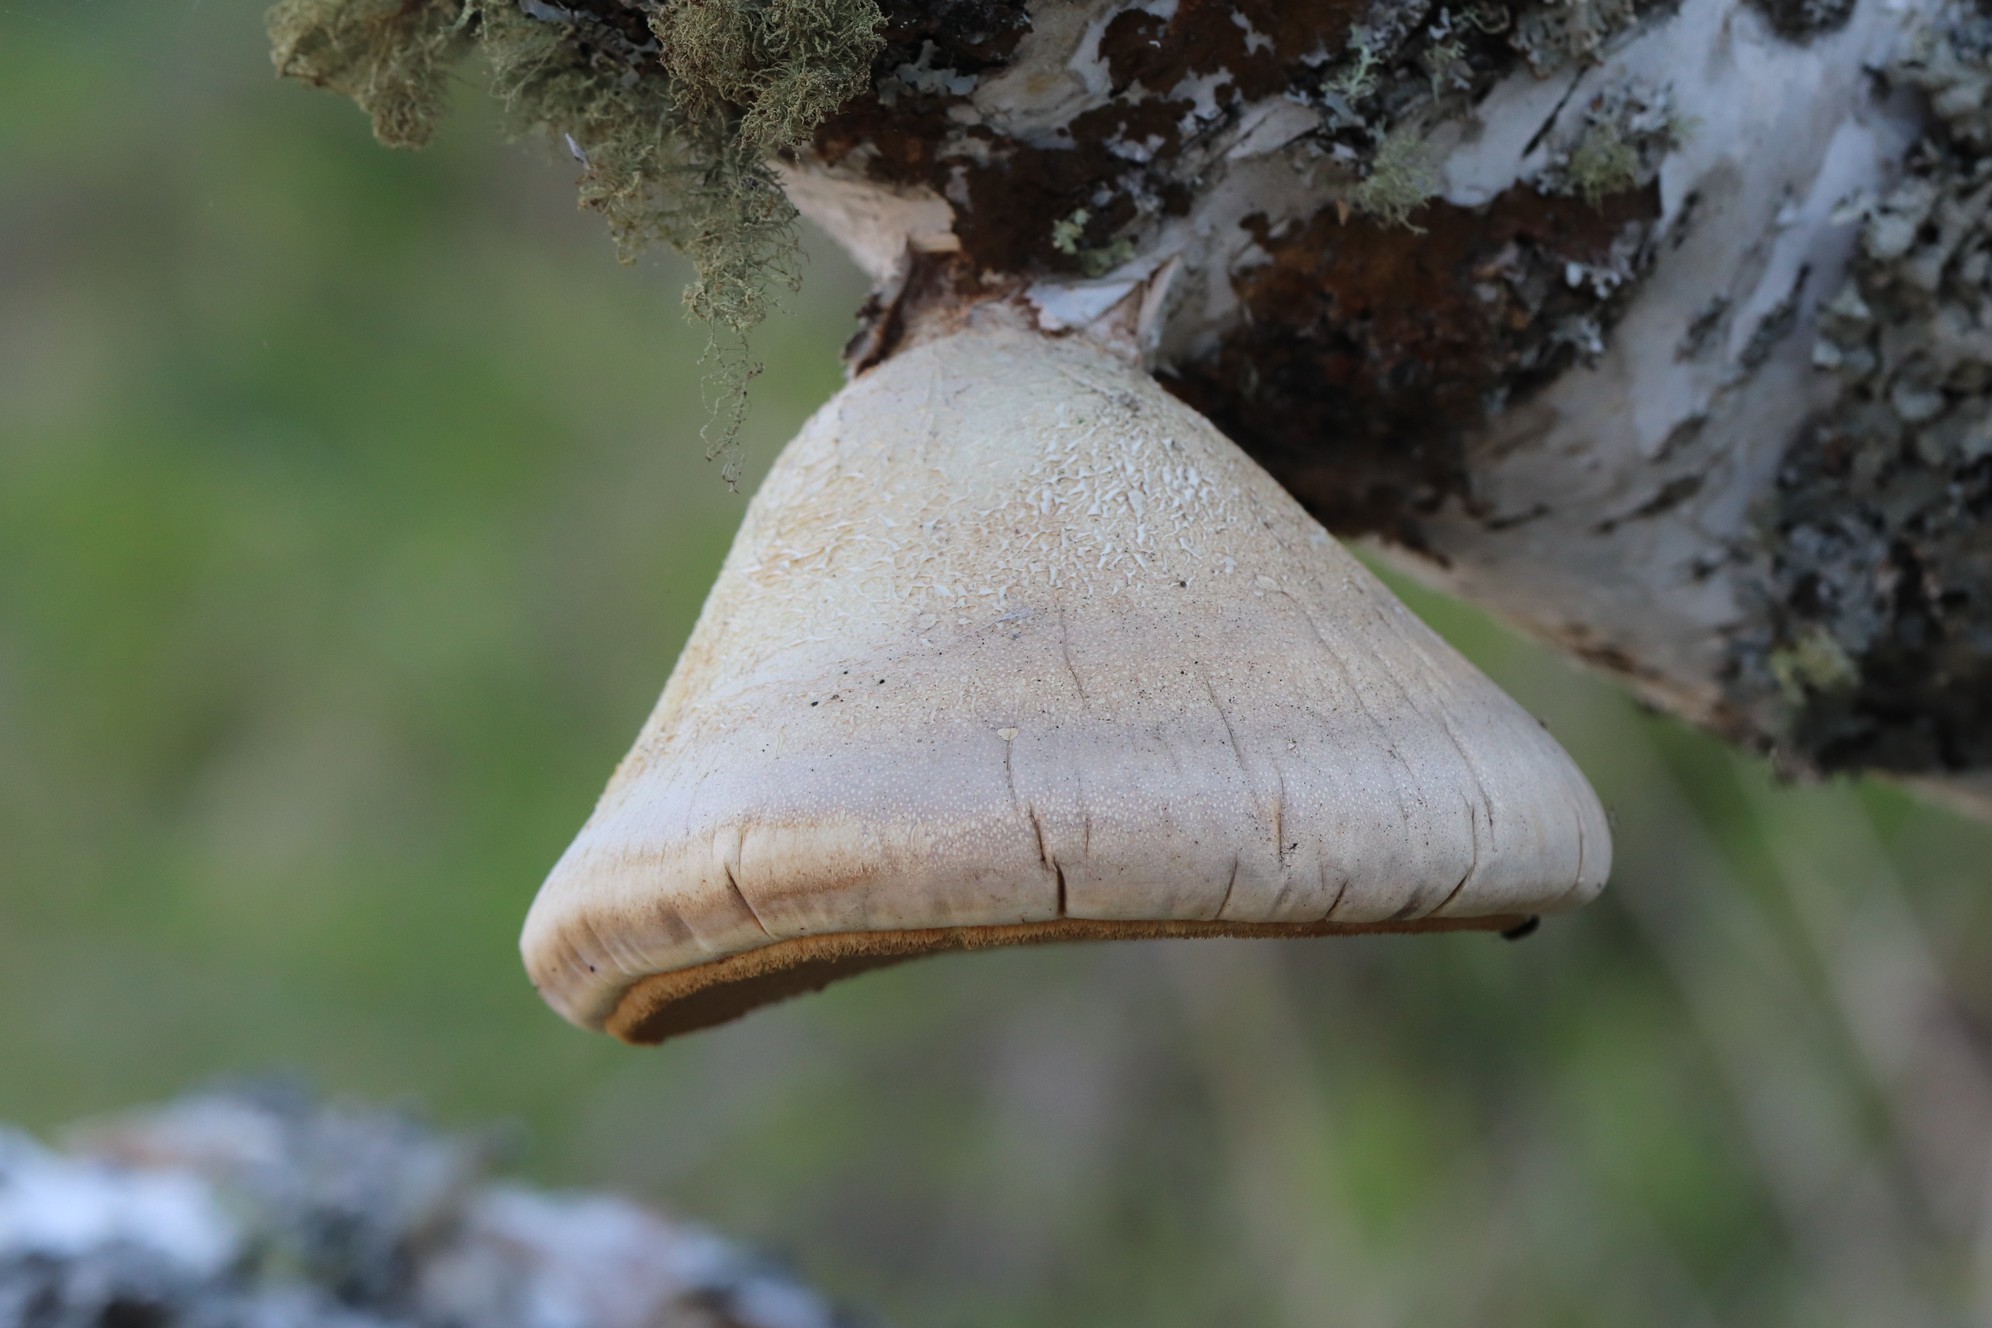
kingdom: Fungi
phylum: Basidiomycota
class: Agaricomycetes
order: Polyporales
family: Fomitopsidaceae
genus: Fomitopsis
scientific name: Fomitopsis betulina
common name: Birch polypore
